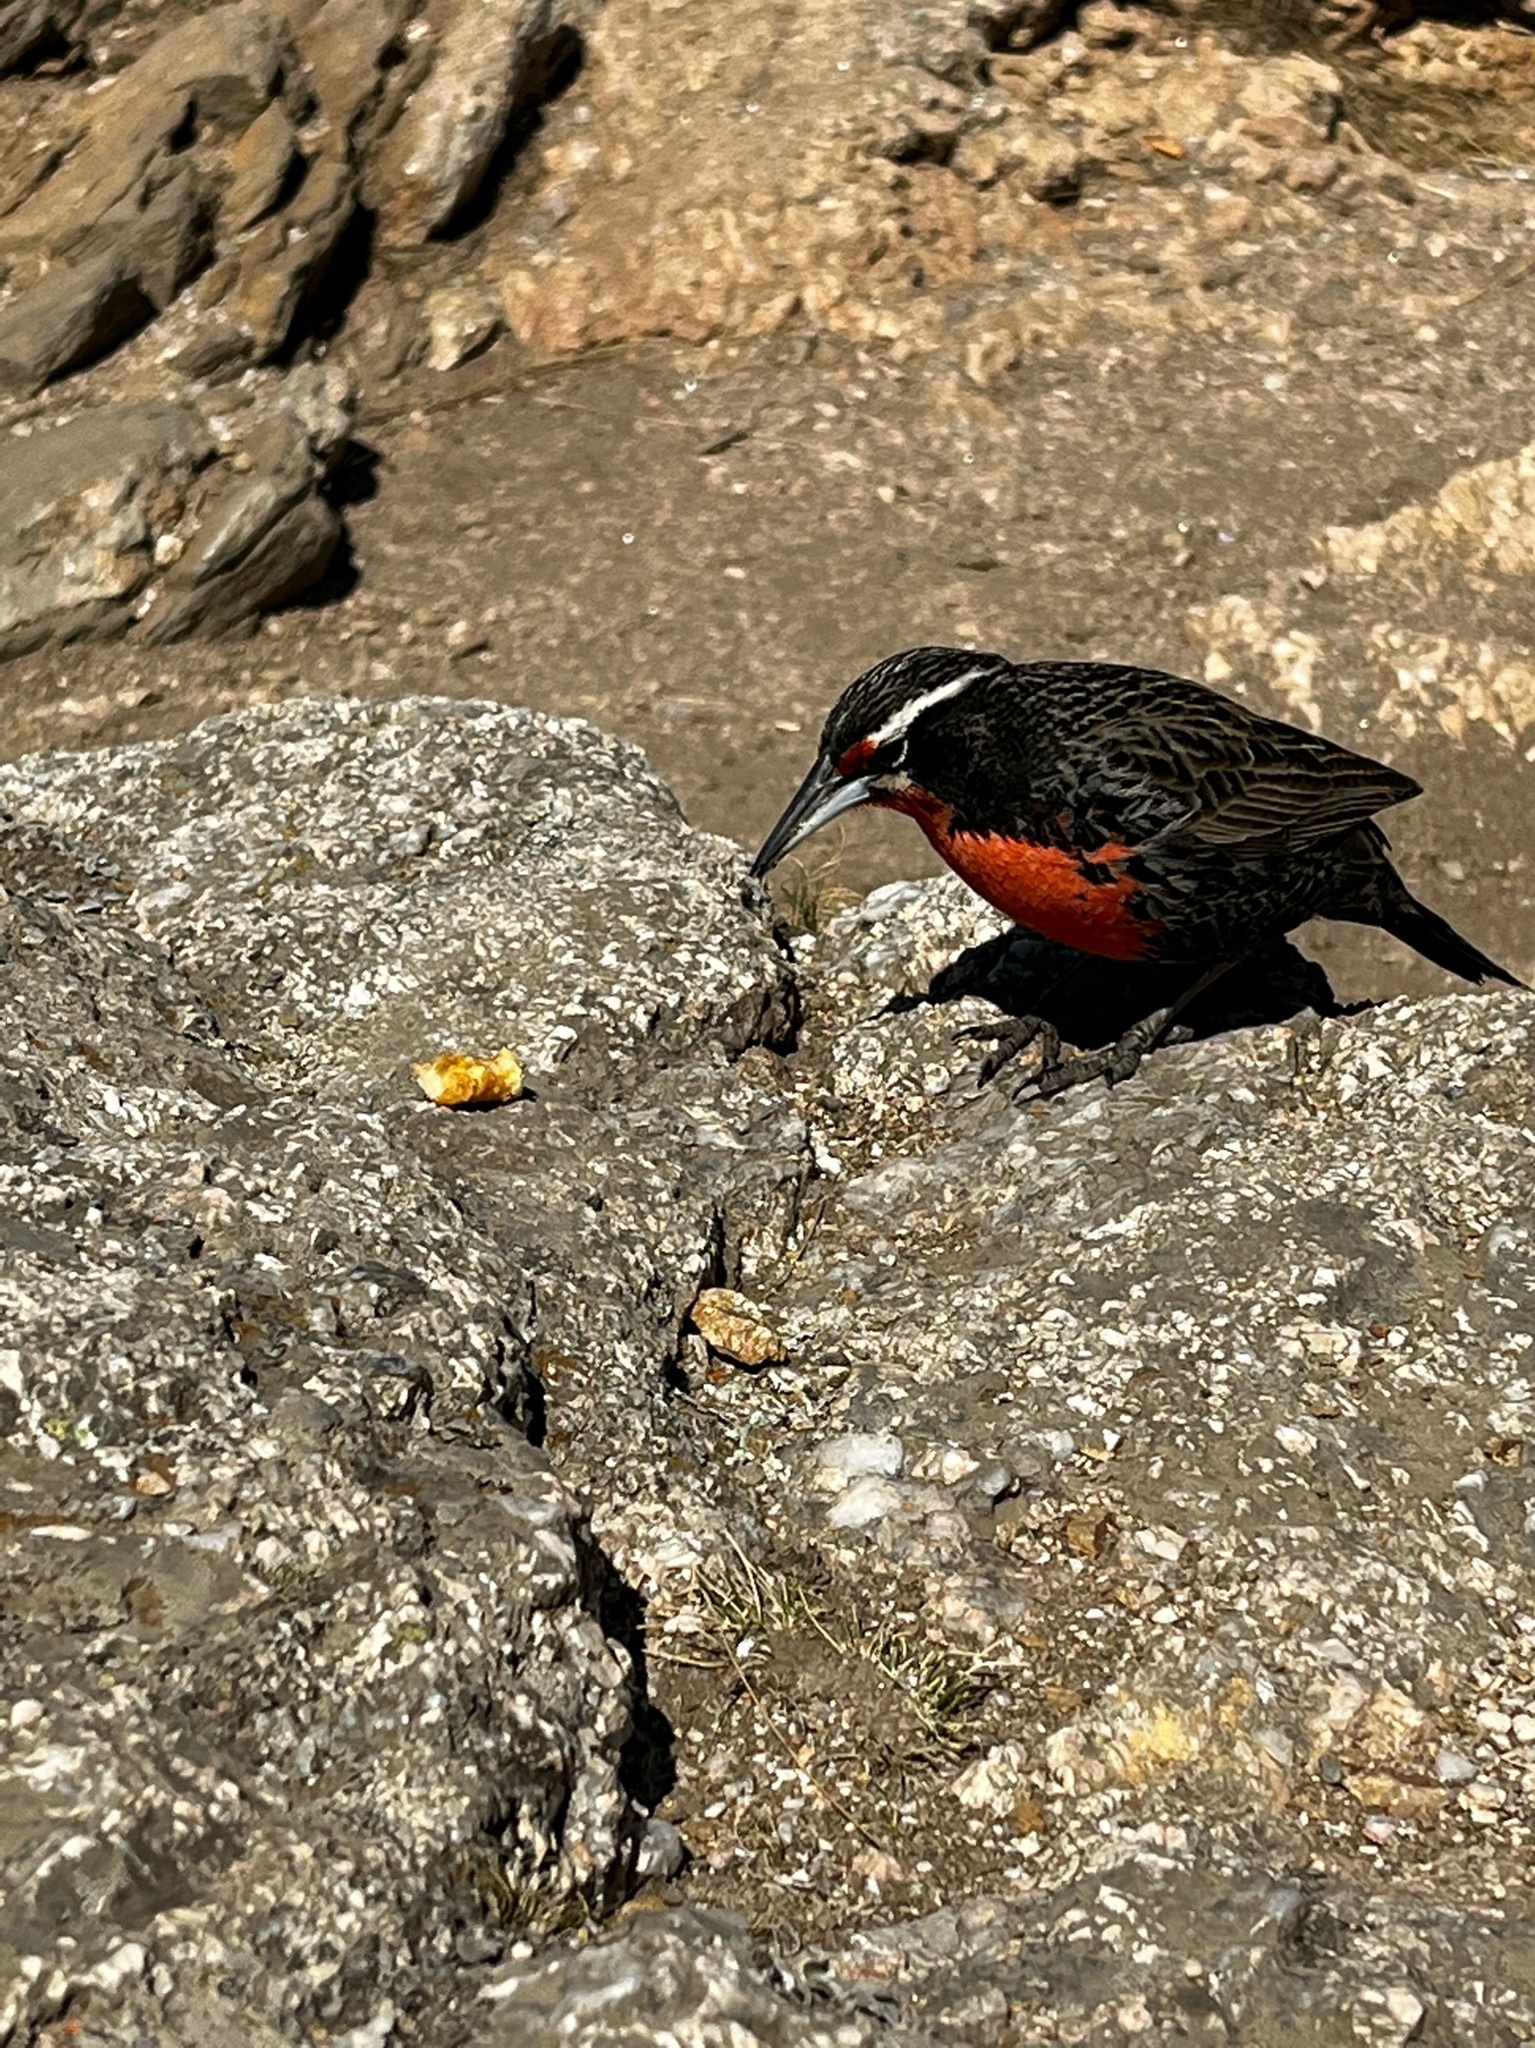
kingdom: Animalia
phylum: Chordata
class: Aves
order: Passeriformes
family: Icteridae
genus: Sturnella
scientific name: Sturnella loyca
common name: Long-tailed meadowlark
